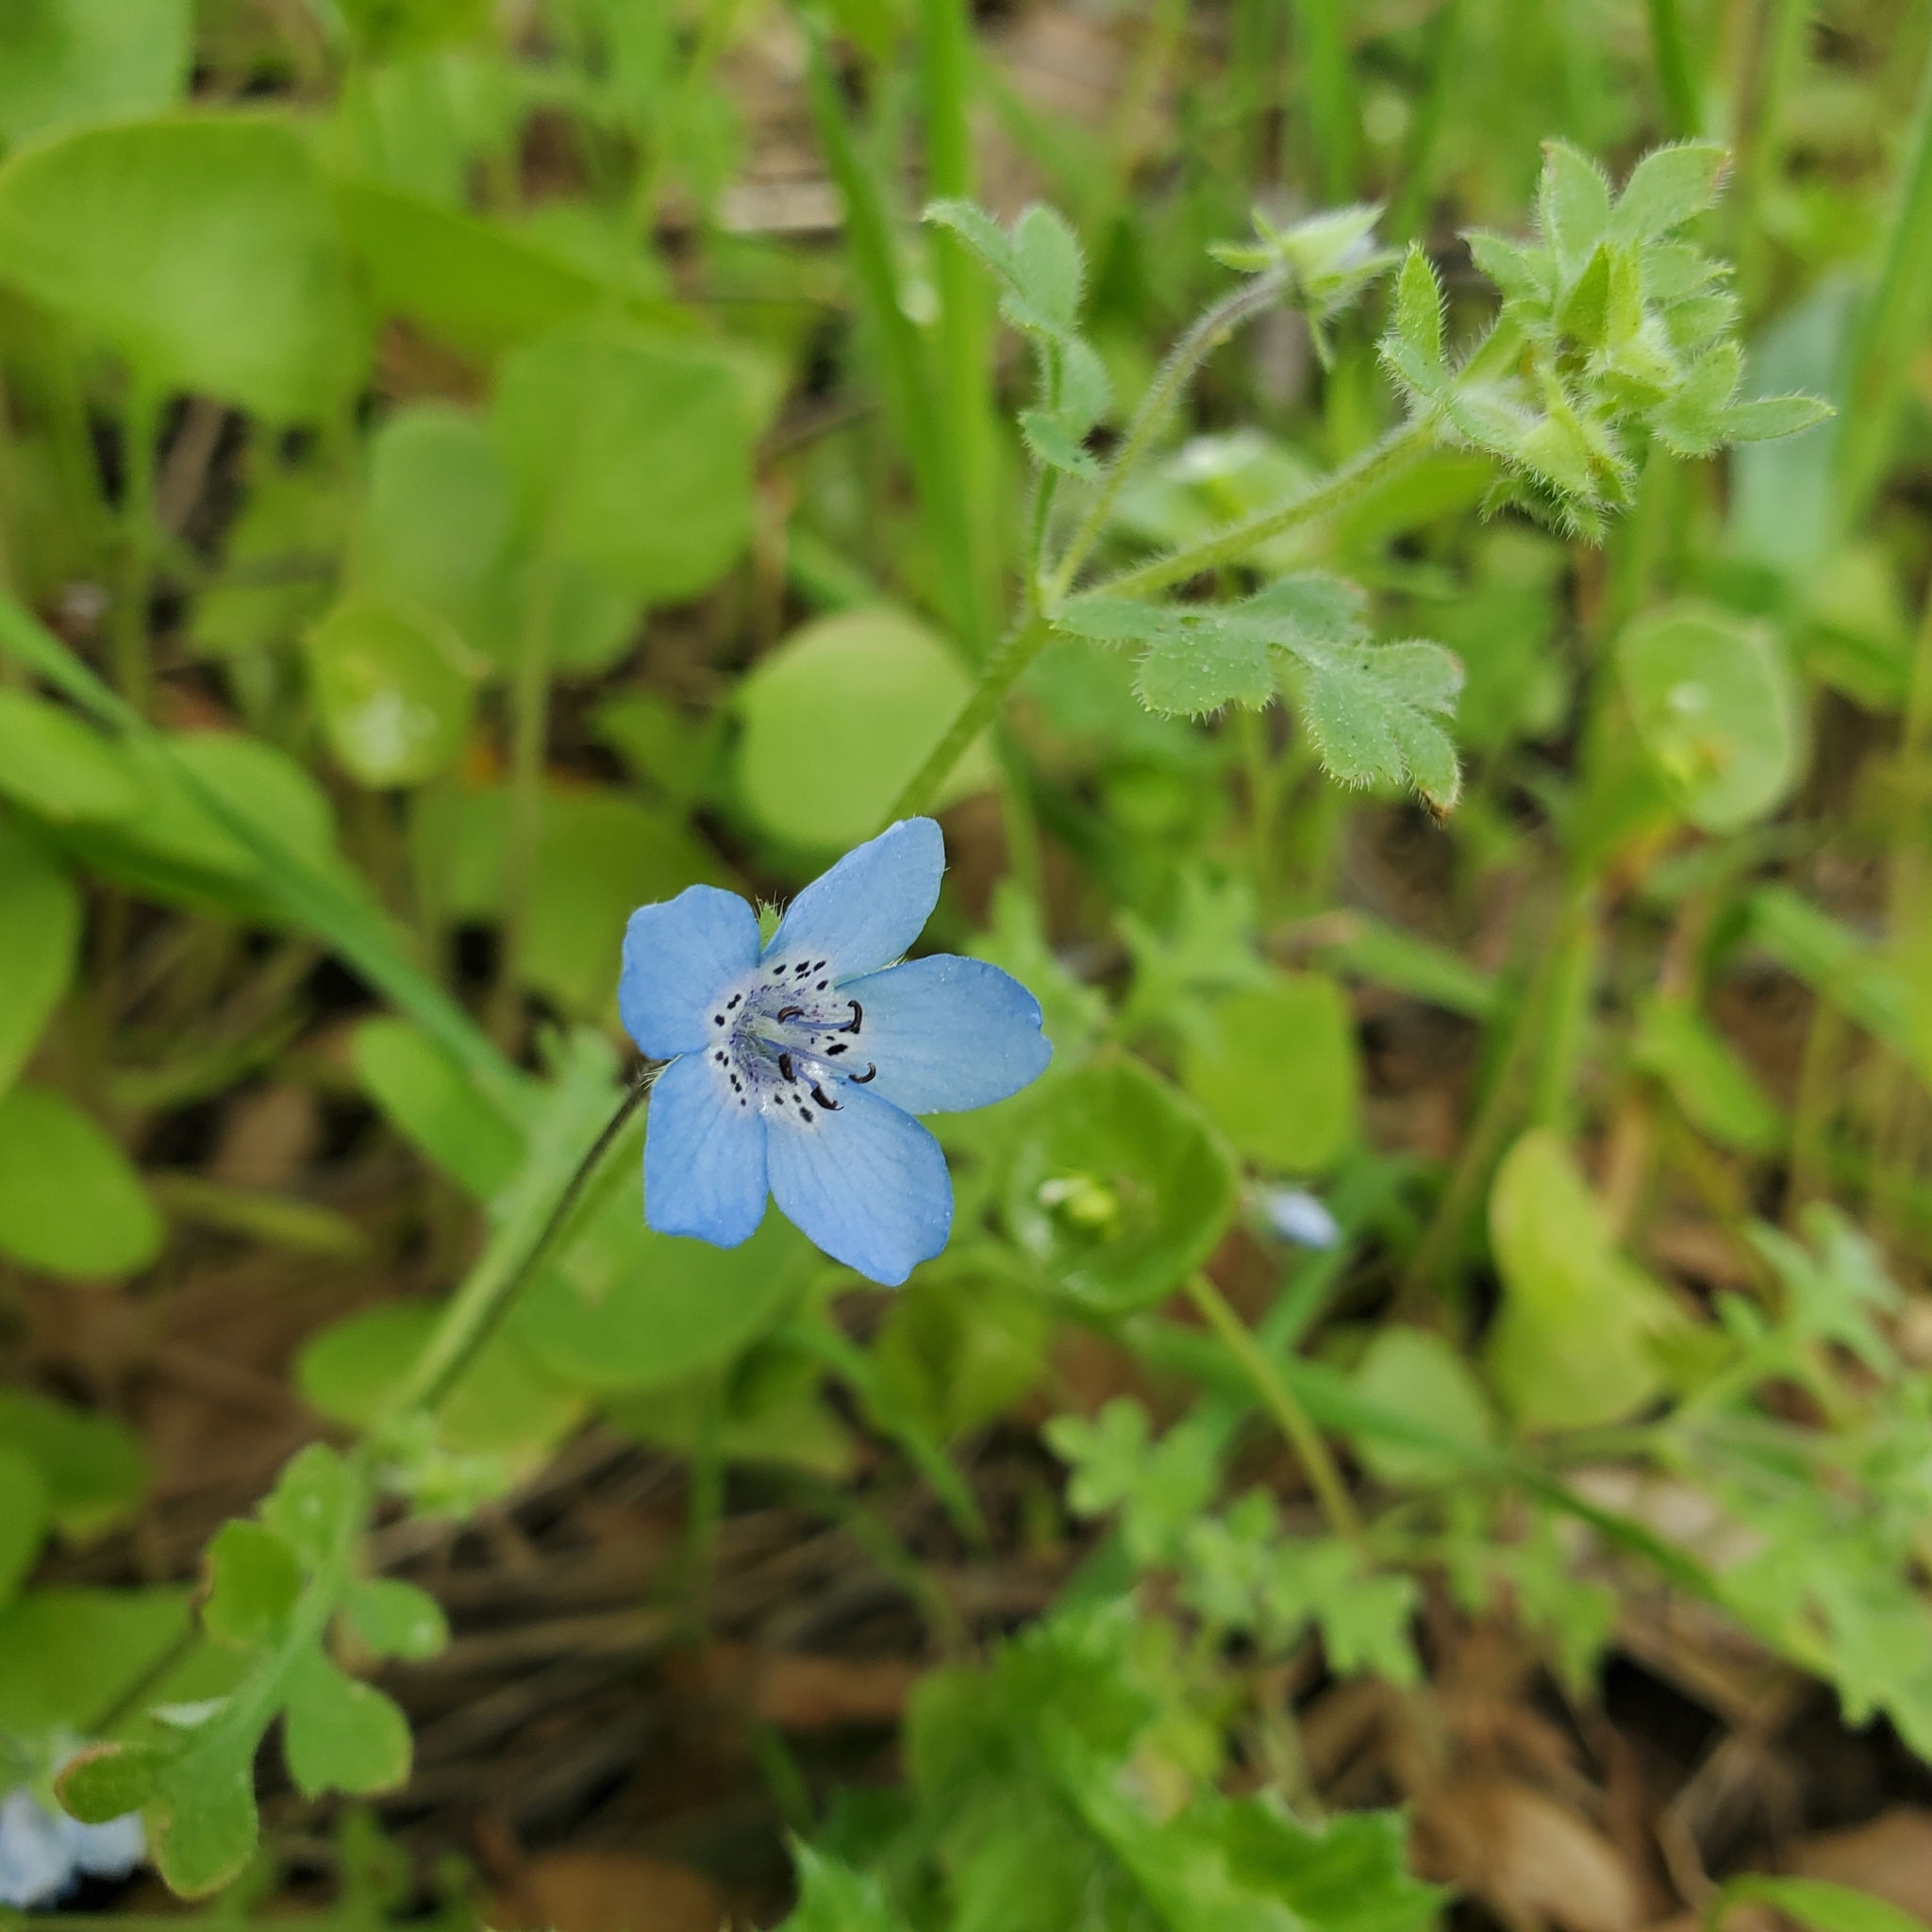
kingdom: Plantae
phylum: Tracheophyta
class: Magnoliopsida
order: Boraginales
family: Hydrophyllaceae
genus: Nemophila
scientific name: Nemophila menziesii
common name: Baby's-blue-eyes
